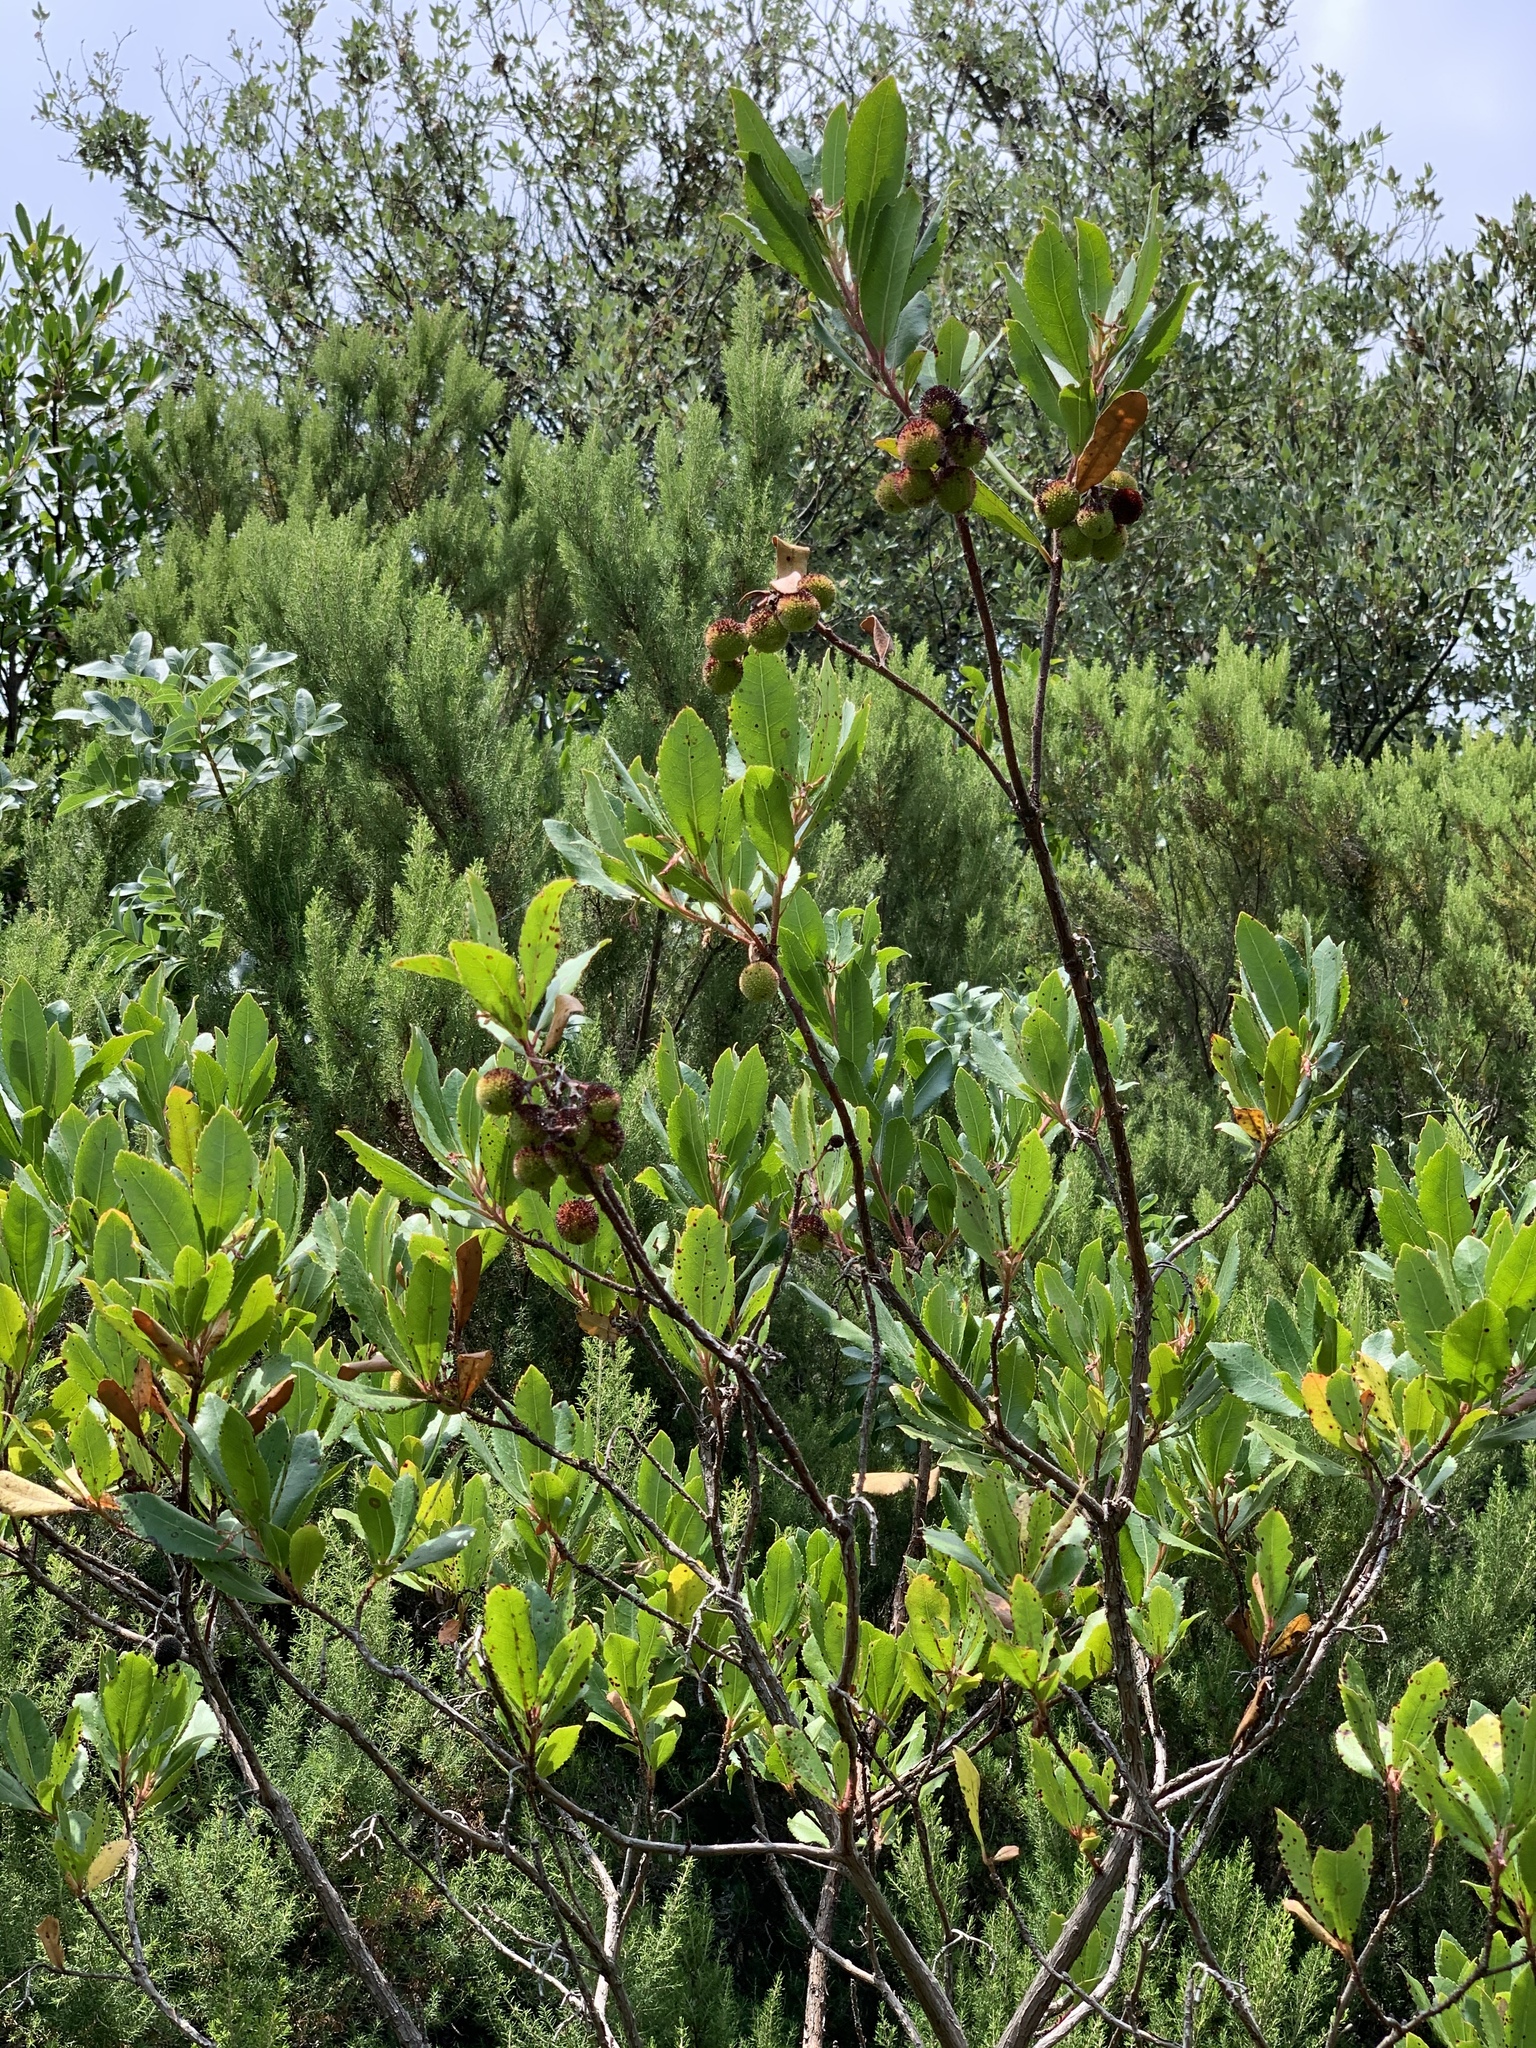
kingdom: Plantae
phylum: Tracheophyta
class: Magnoliopsida
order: Ericales
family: Ericaceae
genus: Arbutus
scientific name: Arbutus unedo
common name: Strawberry-tree
